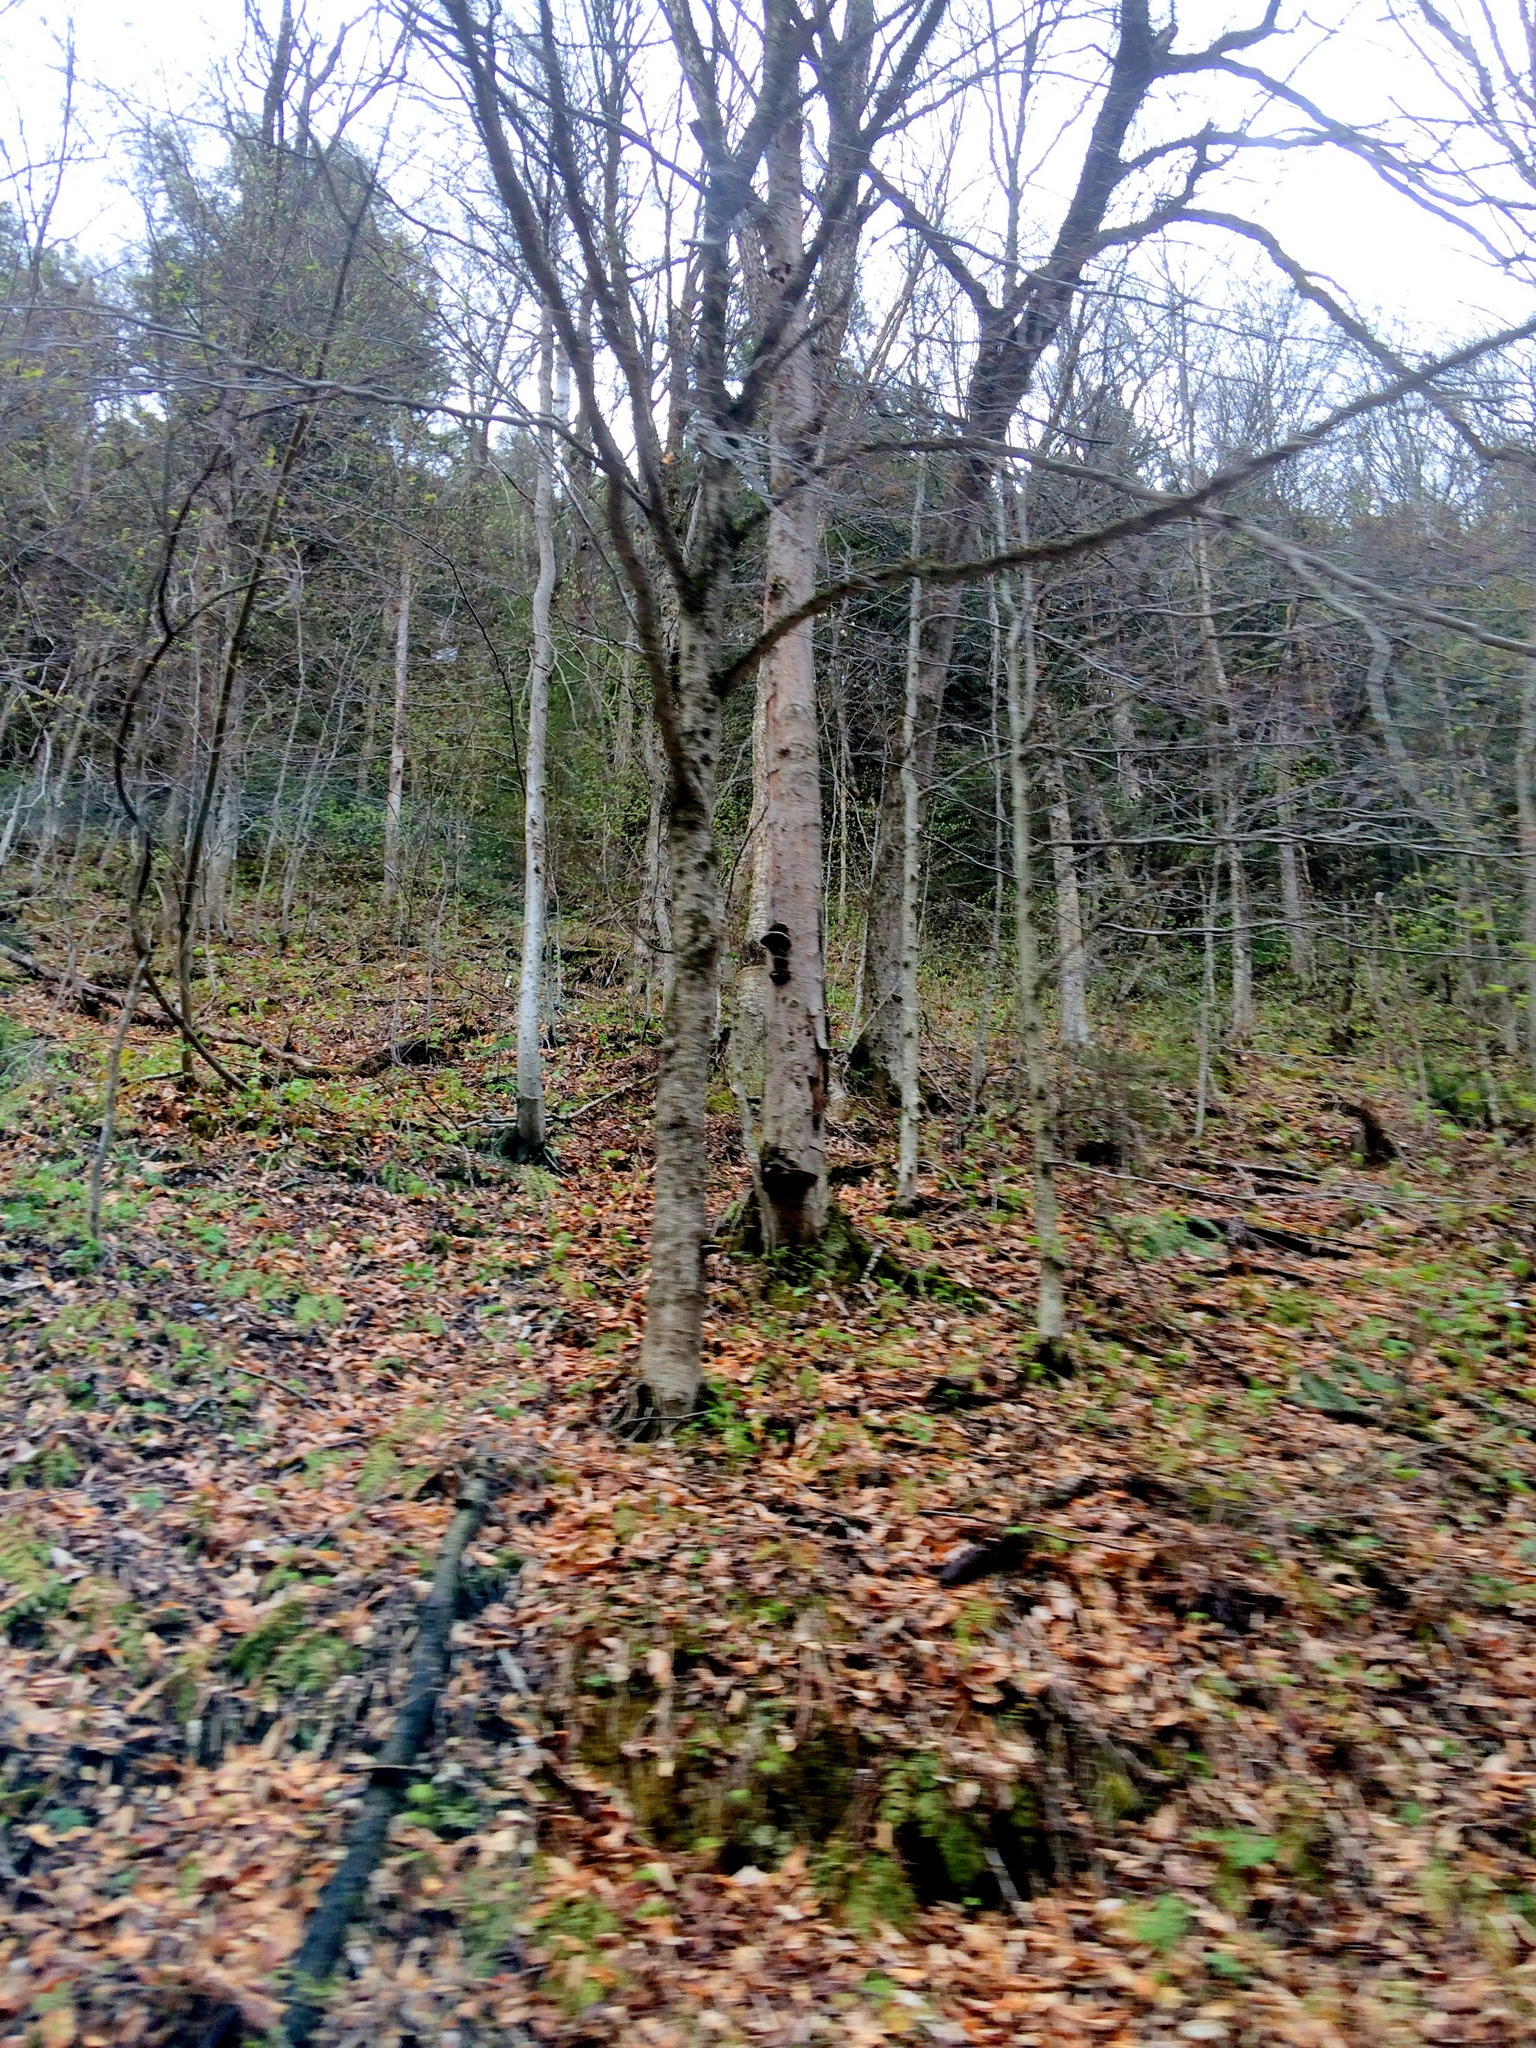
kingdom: Plantae
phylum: Tracheophyta
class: Magnoliopsida
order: Fagales
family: Fagaceae
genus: Fagus
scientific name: Fagus grandifolia
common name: American beech
